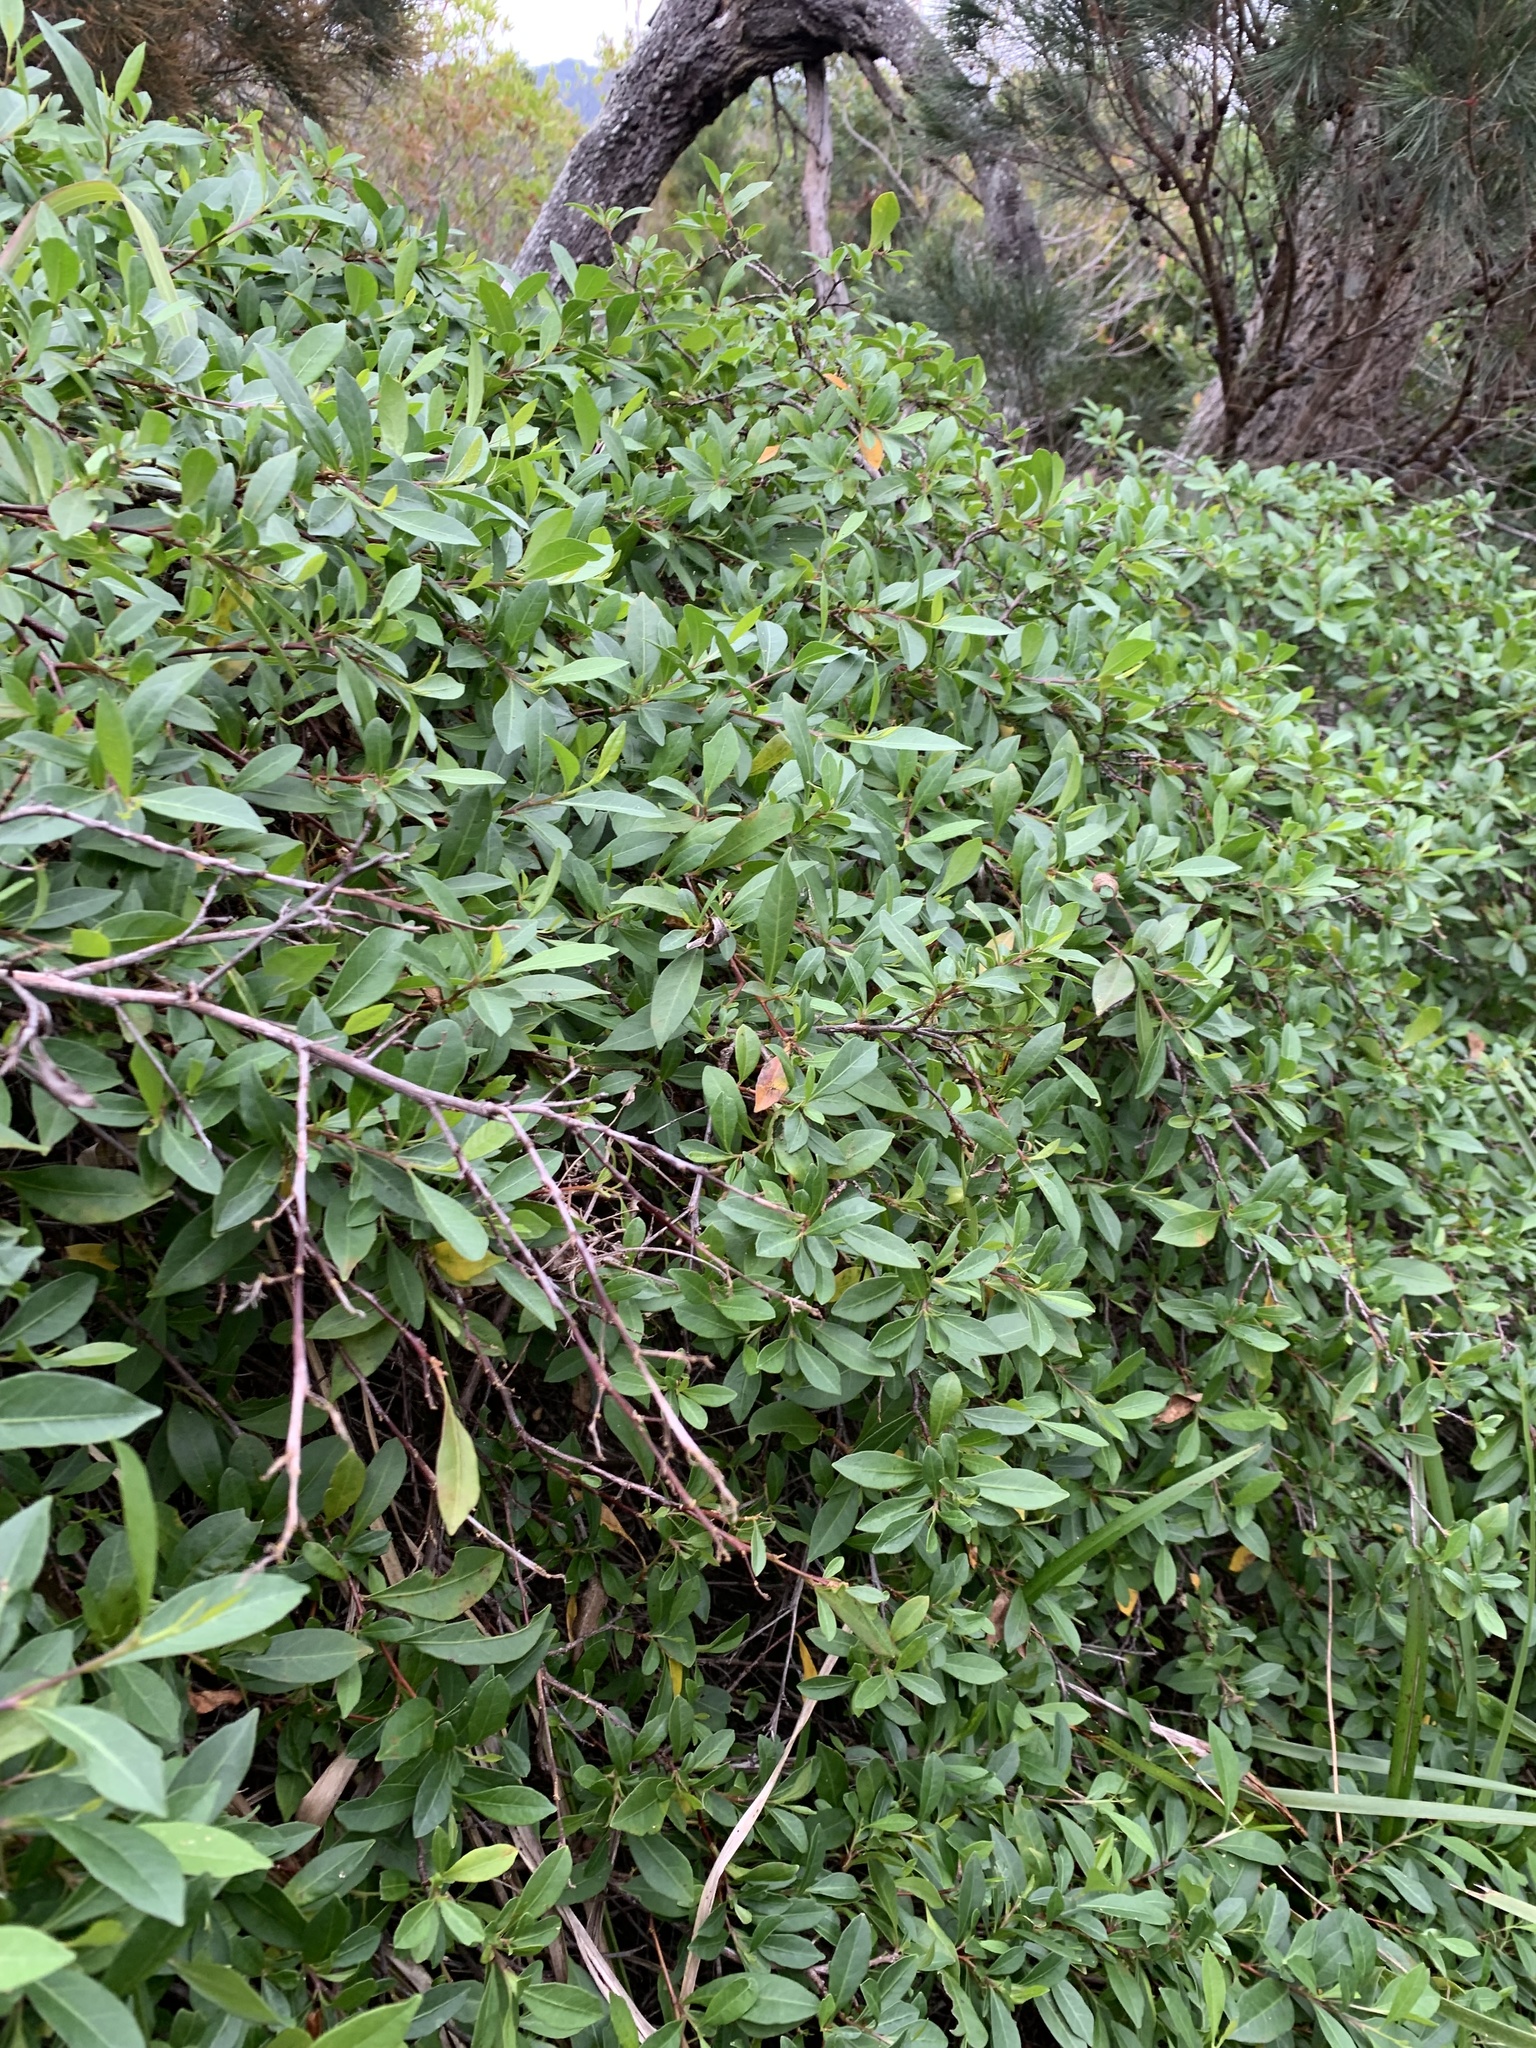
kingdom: Plantae
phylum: Tracheophyta
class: Magnoliopsida
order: Sapindales
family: Sapindaceae
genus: Dodonaea
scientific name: Dodonaea triquetra
